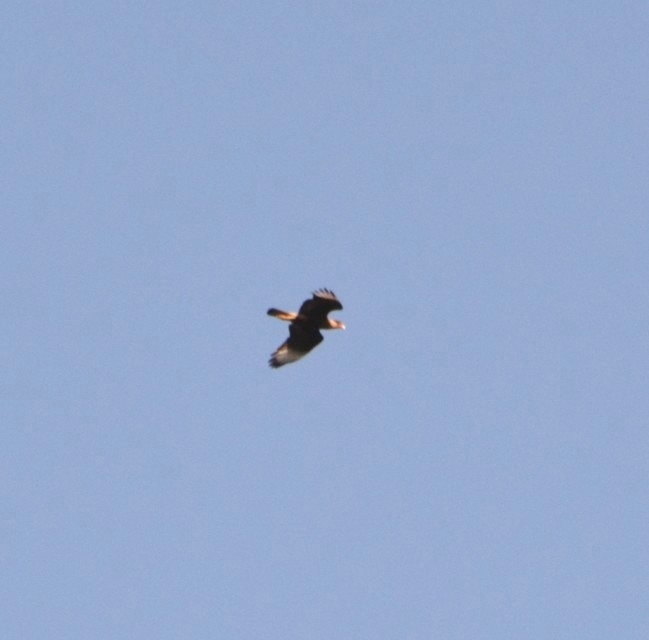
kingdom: Animalia
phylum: Chordata
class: Aves
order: Falconiformes
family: Falconidae
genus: Caracara
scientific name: Caracara plancus
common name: Southern caracara
